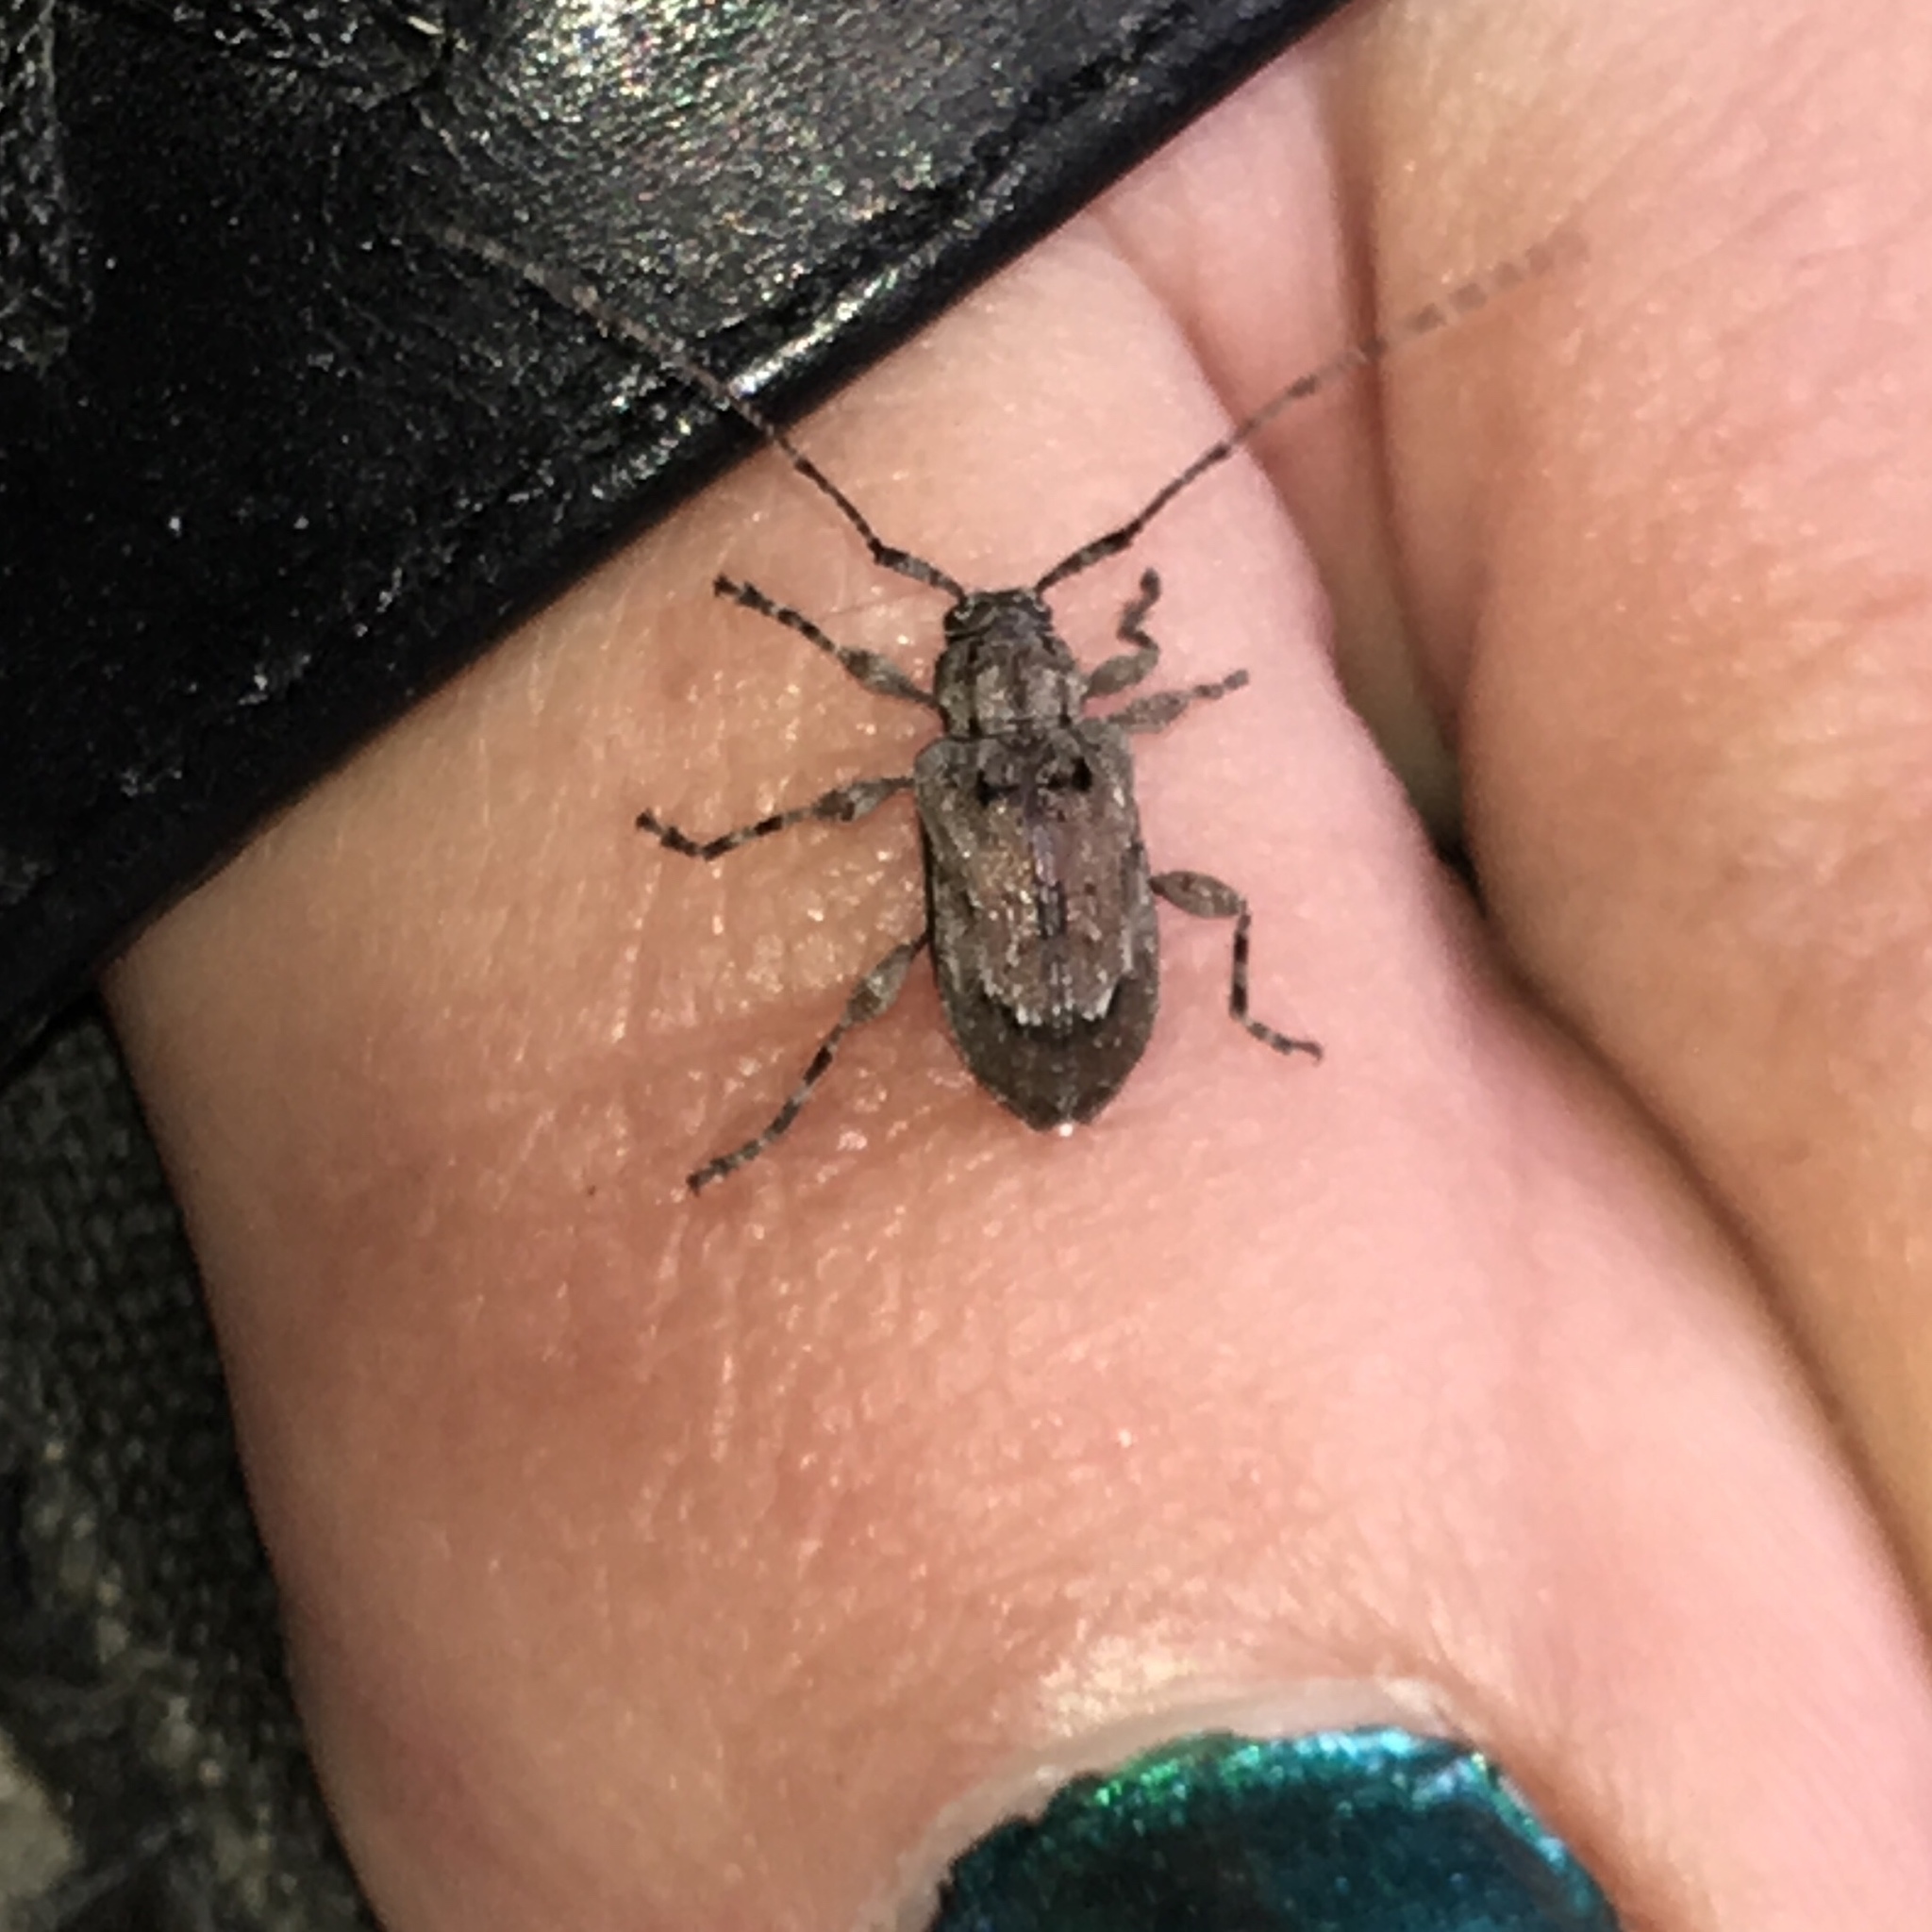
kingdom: Animalia
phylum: Arthropoda
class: Insecta
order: Coleoptera
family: Cerambycidae
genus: Astylopsis
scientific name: Astylopsis arcuata
